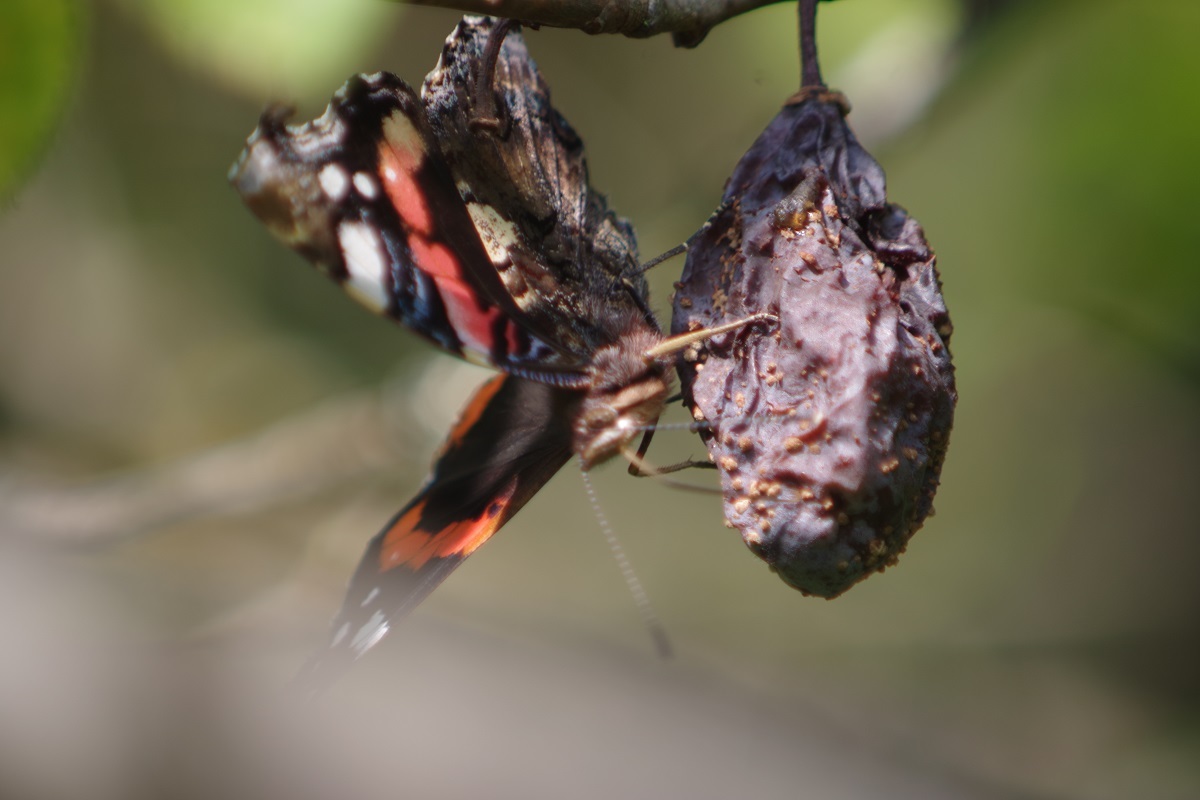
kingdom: Animalia
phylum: Arthropoda
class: Insecta
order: Lepidoptera
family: Nymphalidae
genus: Vanessa
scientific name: Vanessa atalanta
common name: Red admiral
